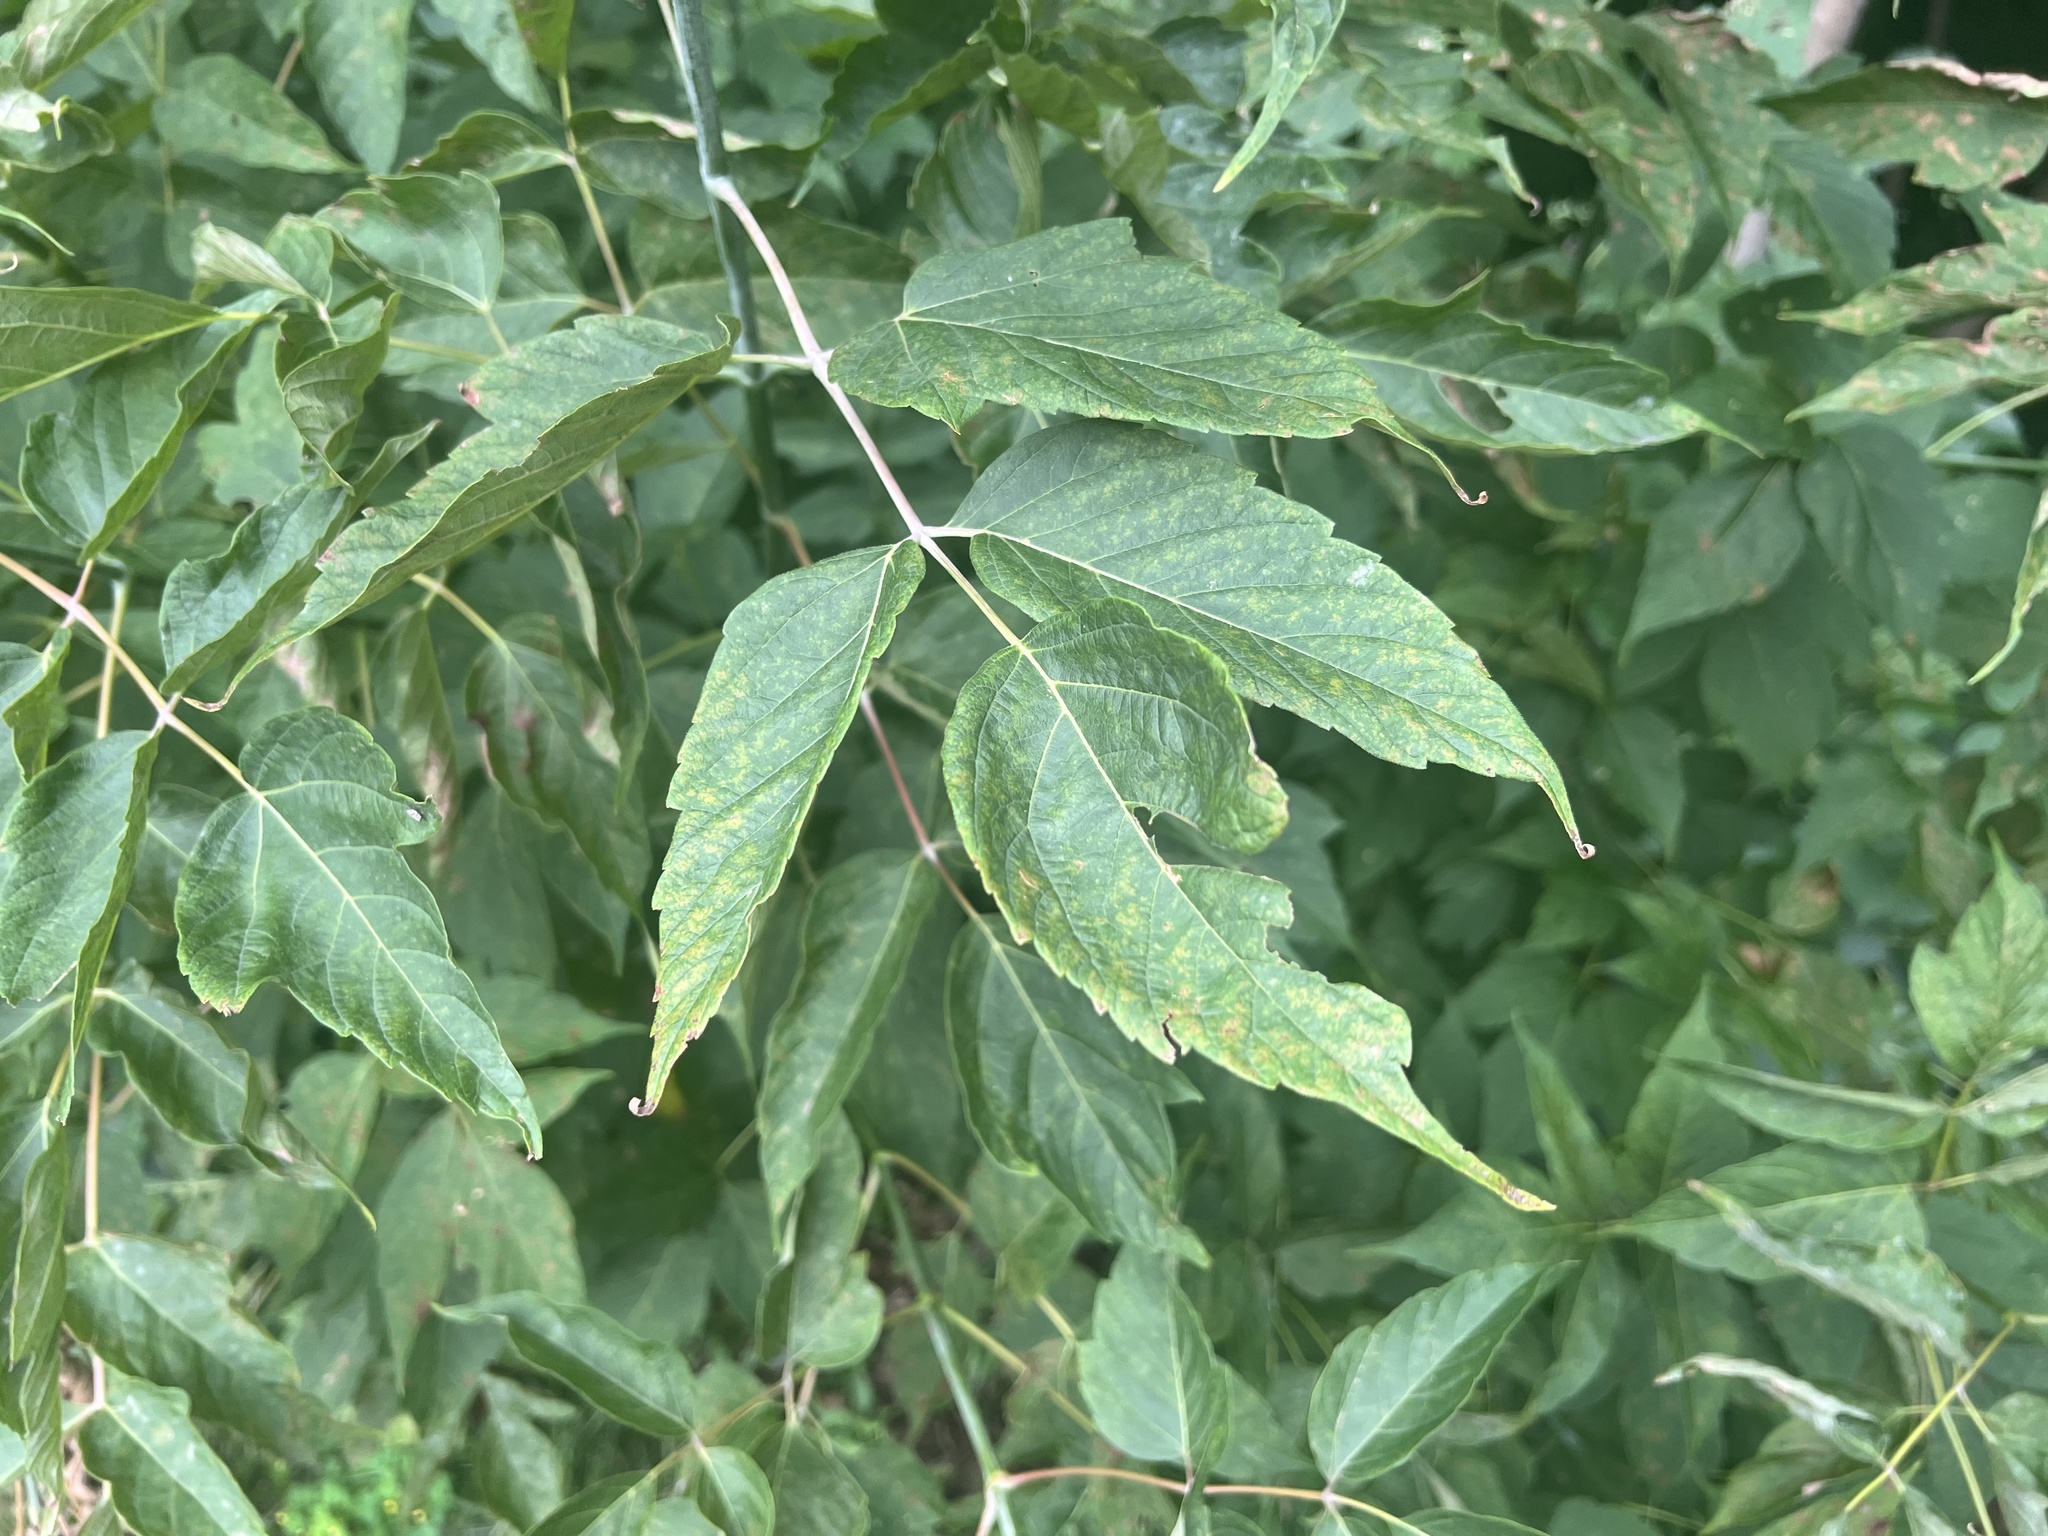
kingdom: Plantae
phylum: Tracheophyta
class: Magnoliopsida
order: Sapindales
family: Sapindaceae
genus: Acer
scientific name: Acer negundo
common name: Ashleaf maple
